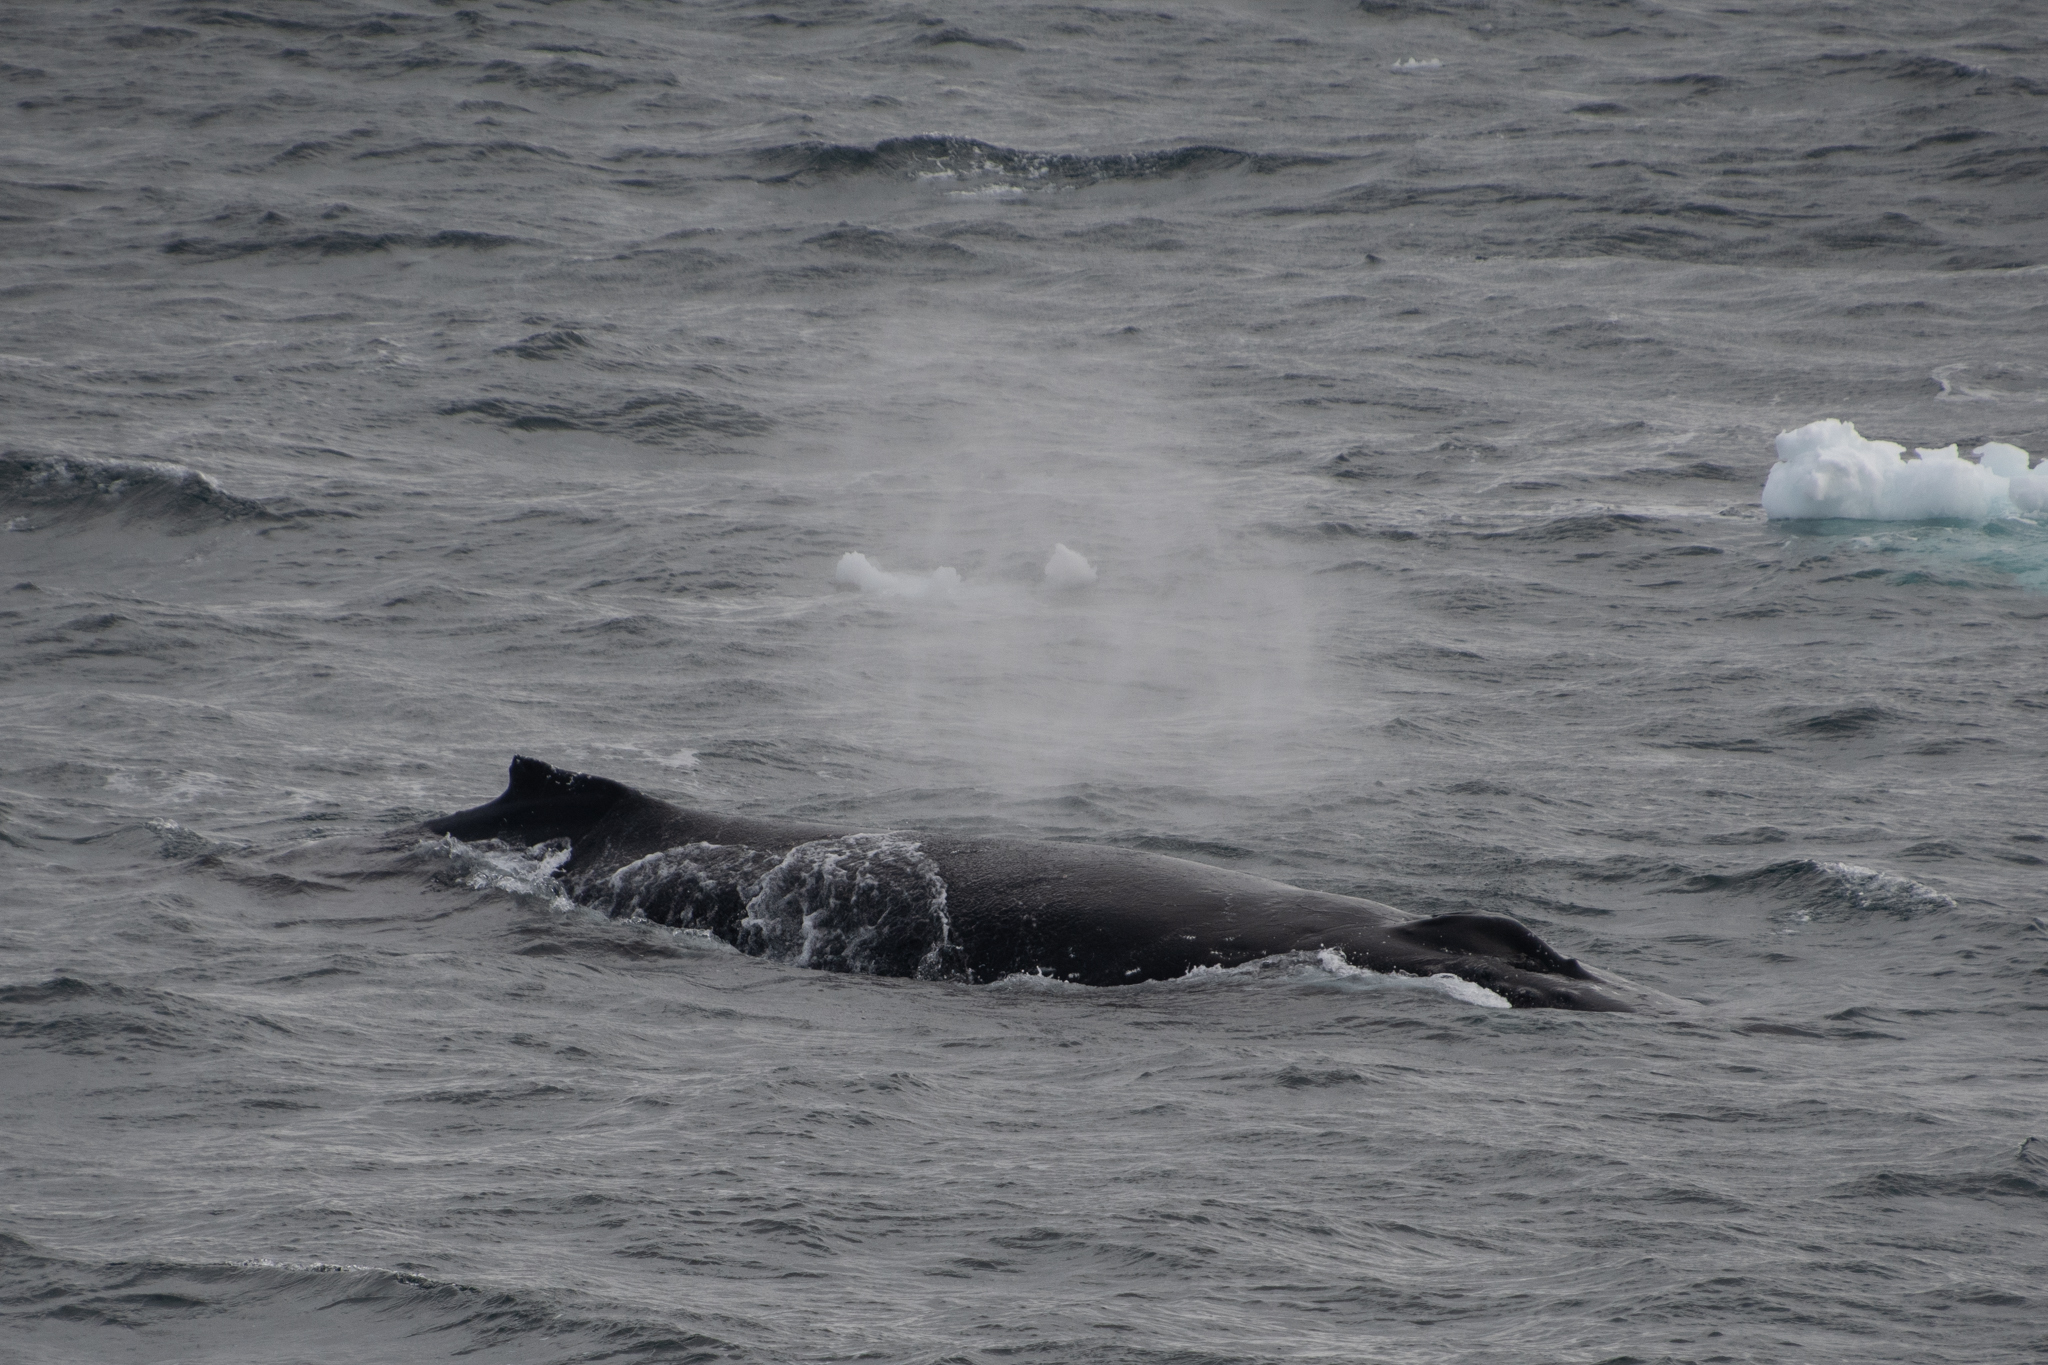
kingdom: Animalia
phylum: Chordata
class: Mammalia
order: Cetacea
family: Balaenopteridae
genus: Megaptera
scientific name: Megaptera novaeangliae
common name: Humpback whale
